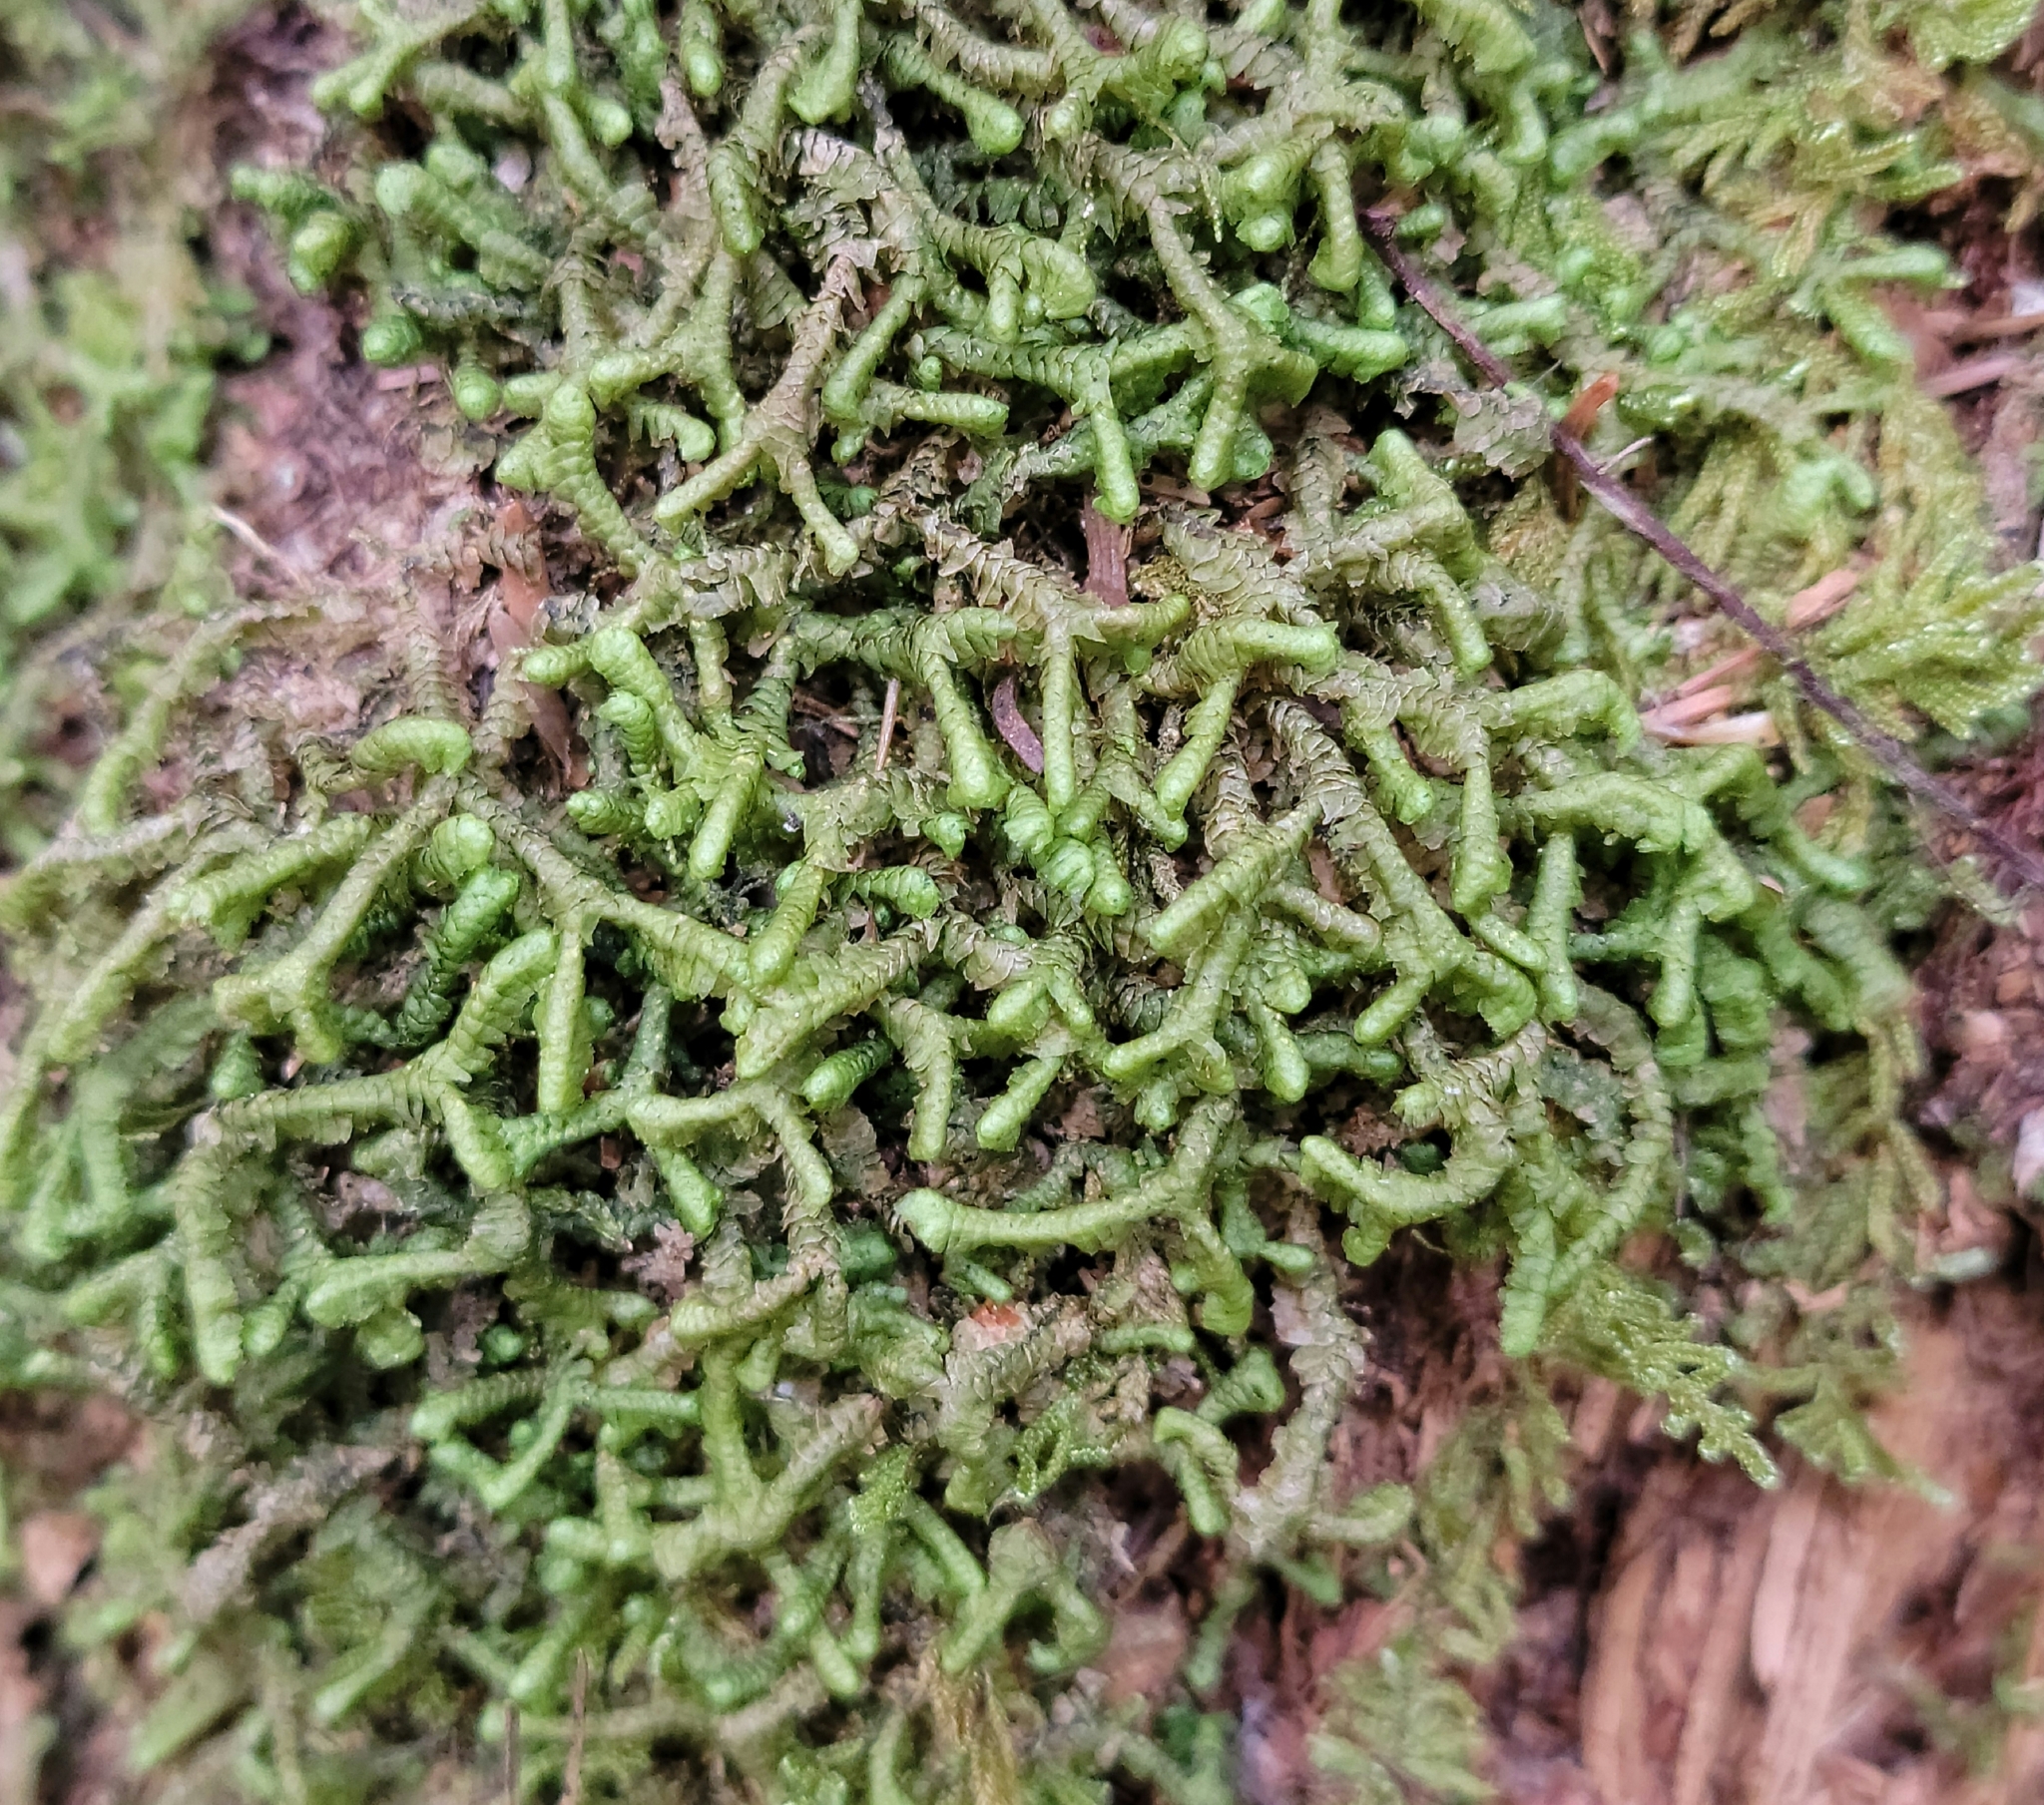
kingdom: Plantae
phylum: Marchantiophyta
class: Jungermanniopsida
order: Jungermanniales
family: Lepidoziaceae
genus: Bazzania
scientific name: Bazzania trilobata
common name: Three-lobed whipwort
